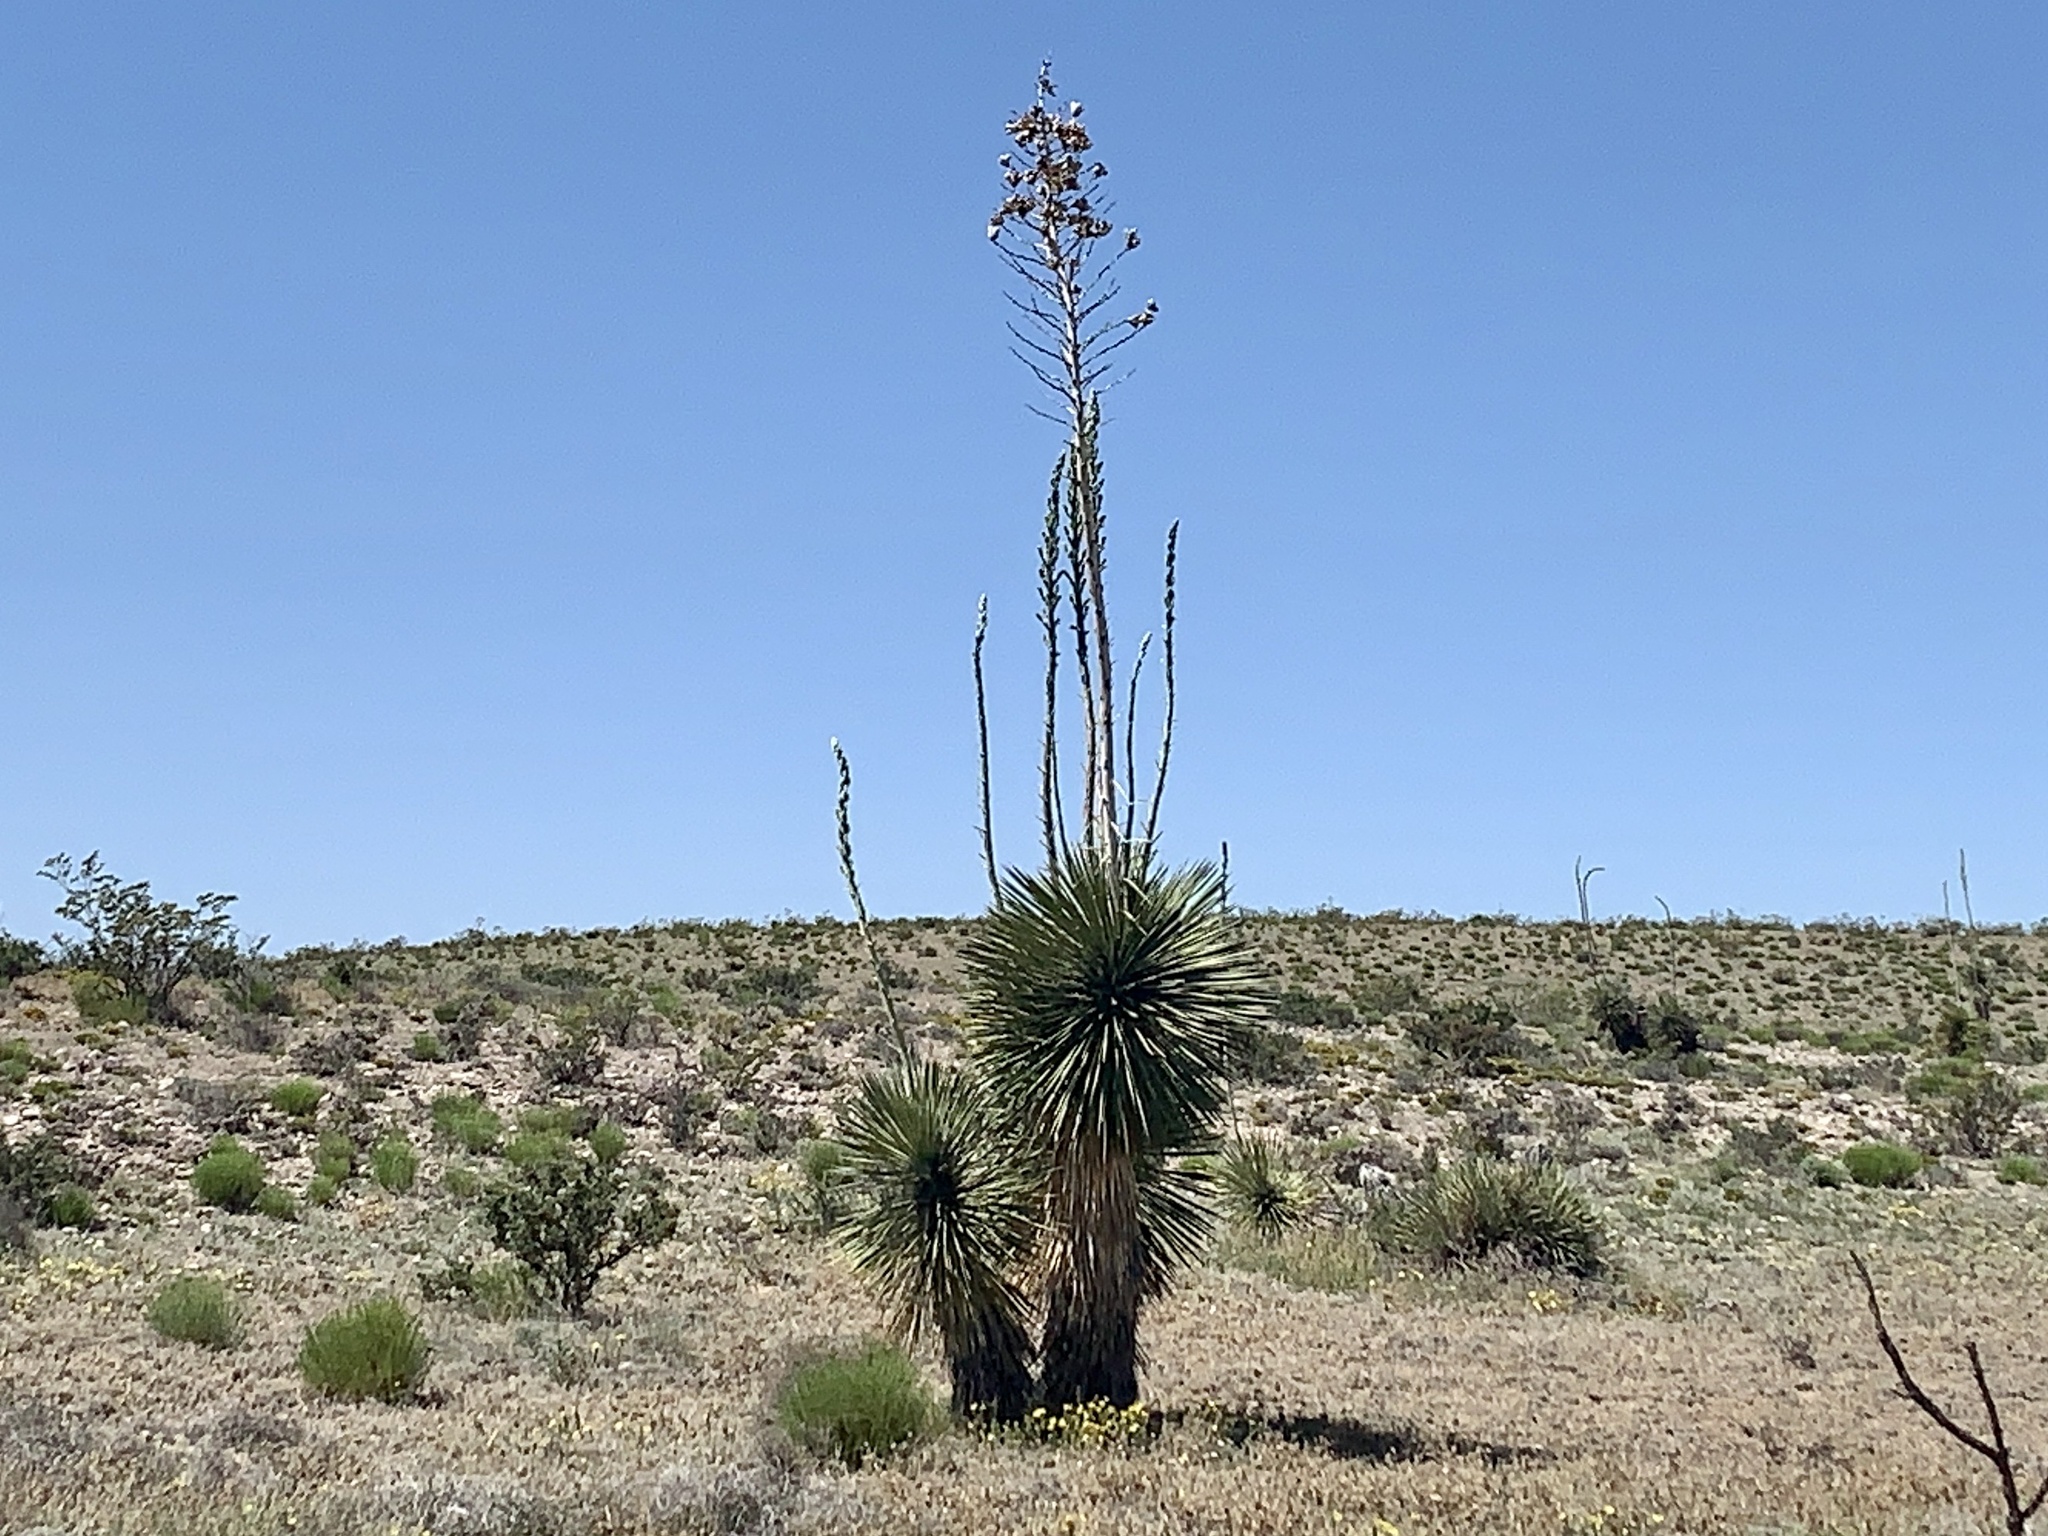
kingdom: Plantae
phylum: Tracheophyta
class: Liliopsida
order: Asparagales
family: Asparagaceae
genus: Yucca
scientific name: Yucca elata
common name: Palmella
